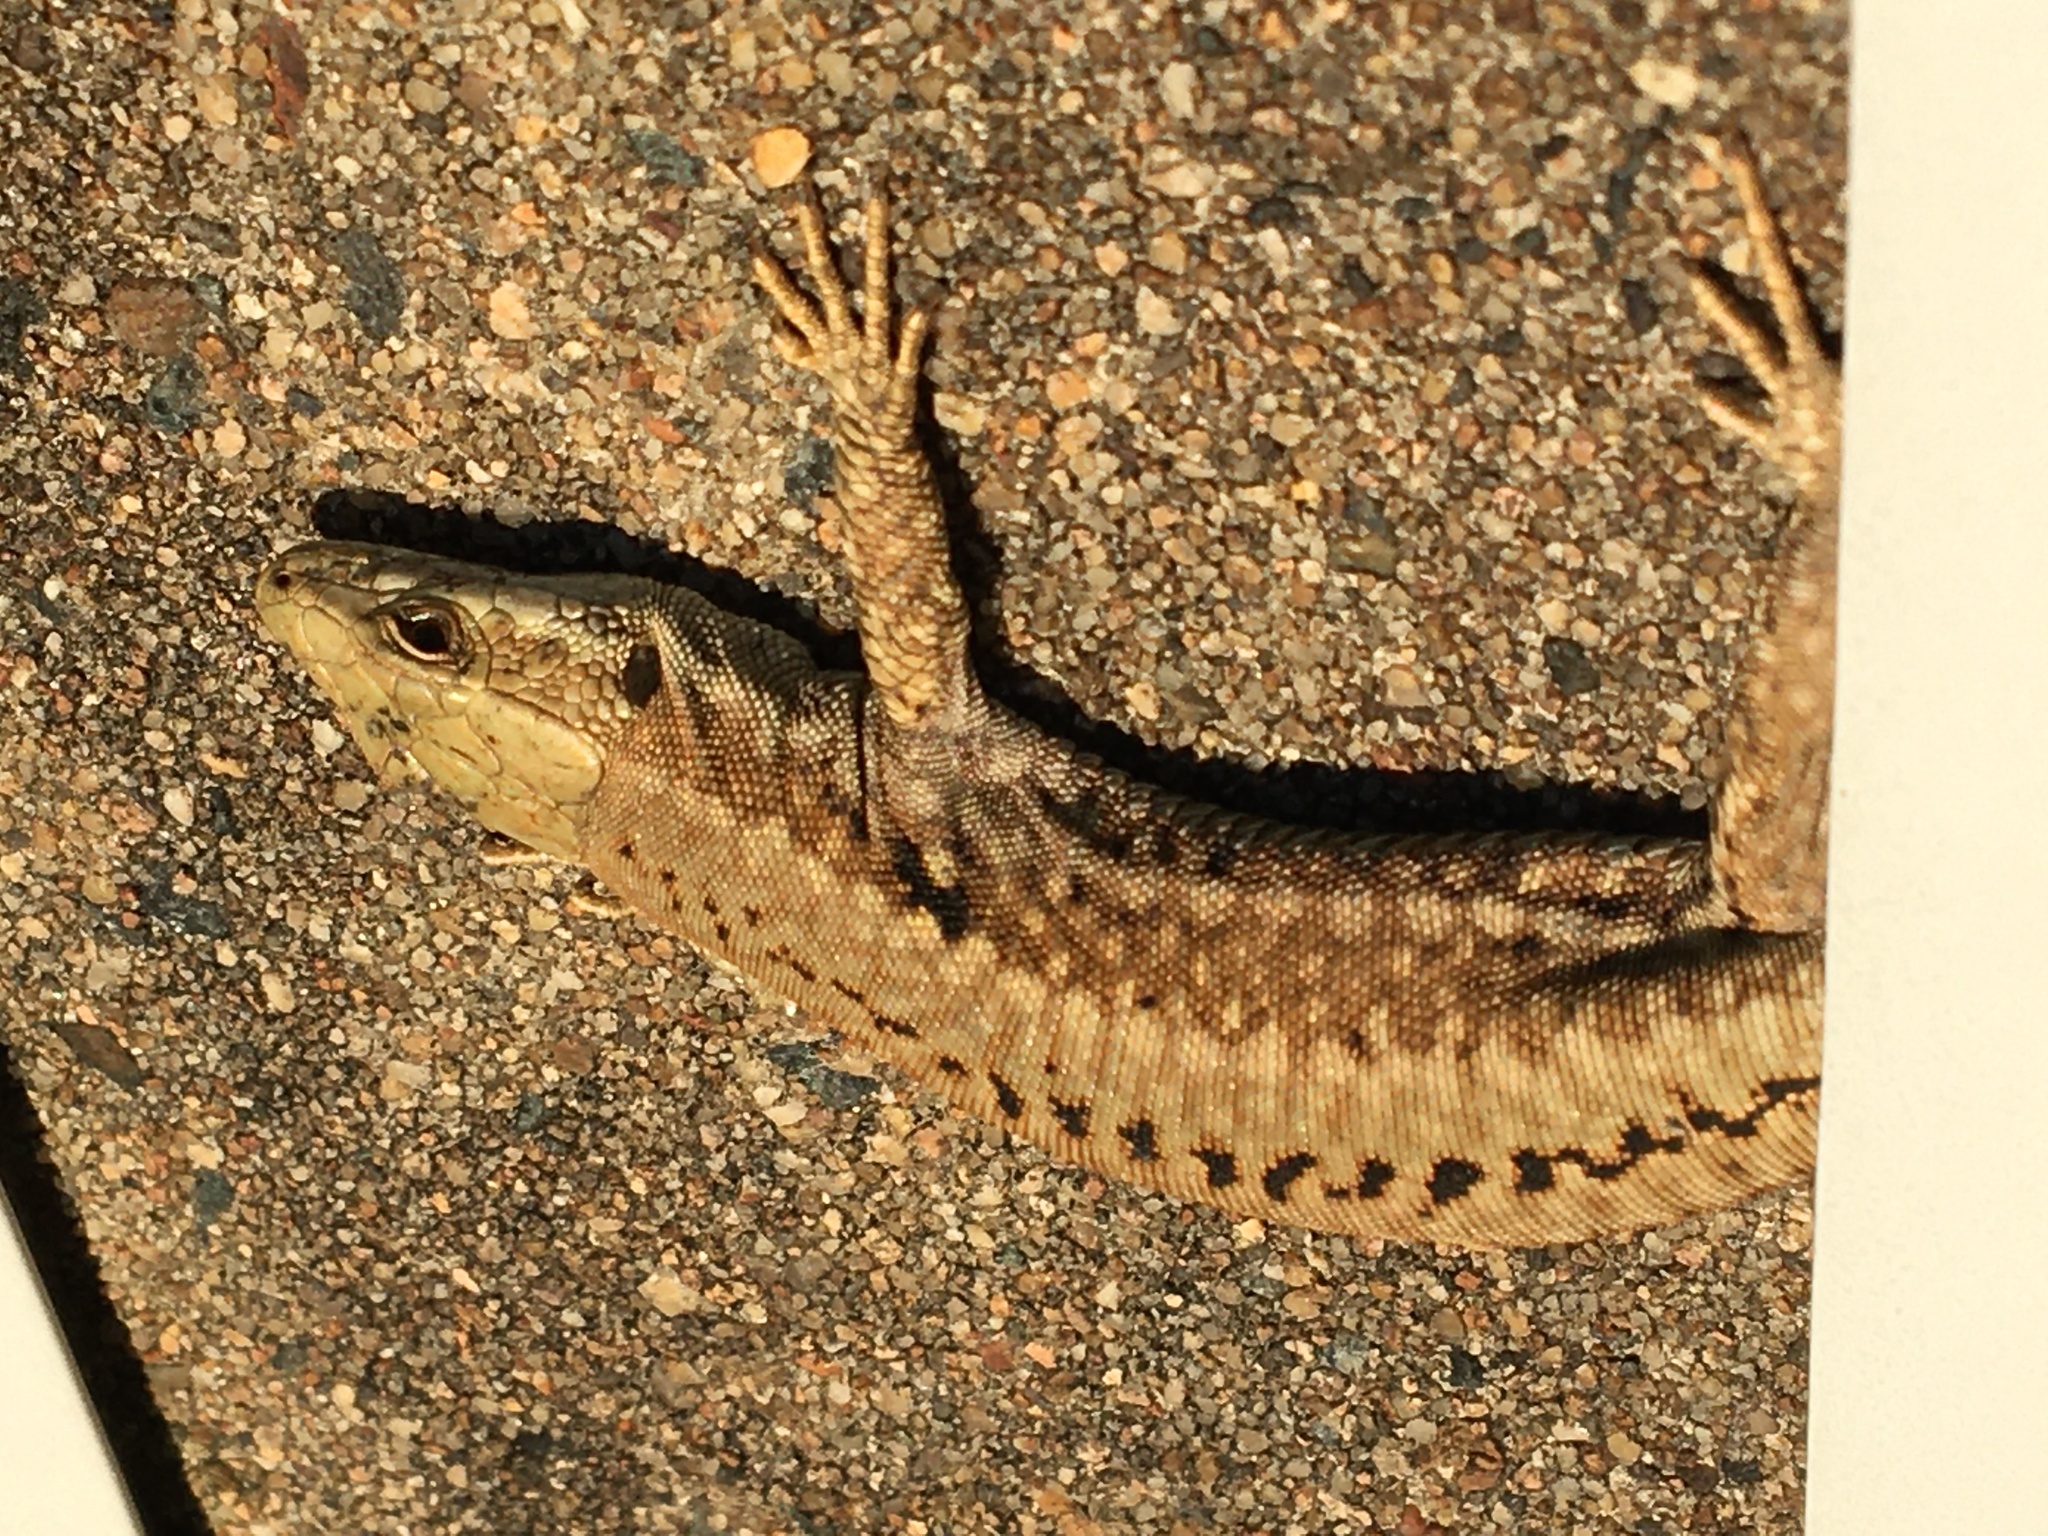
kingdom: Animalia
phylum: Chordata
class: Squamata
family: Lacertidae
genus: Podarcis
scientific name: Podarcis muralis
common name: Common wall lizard
